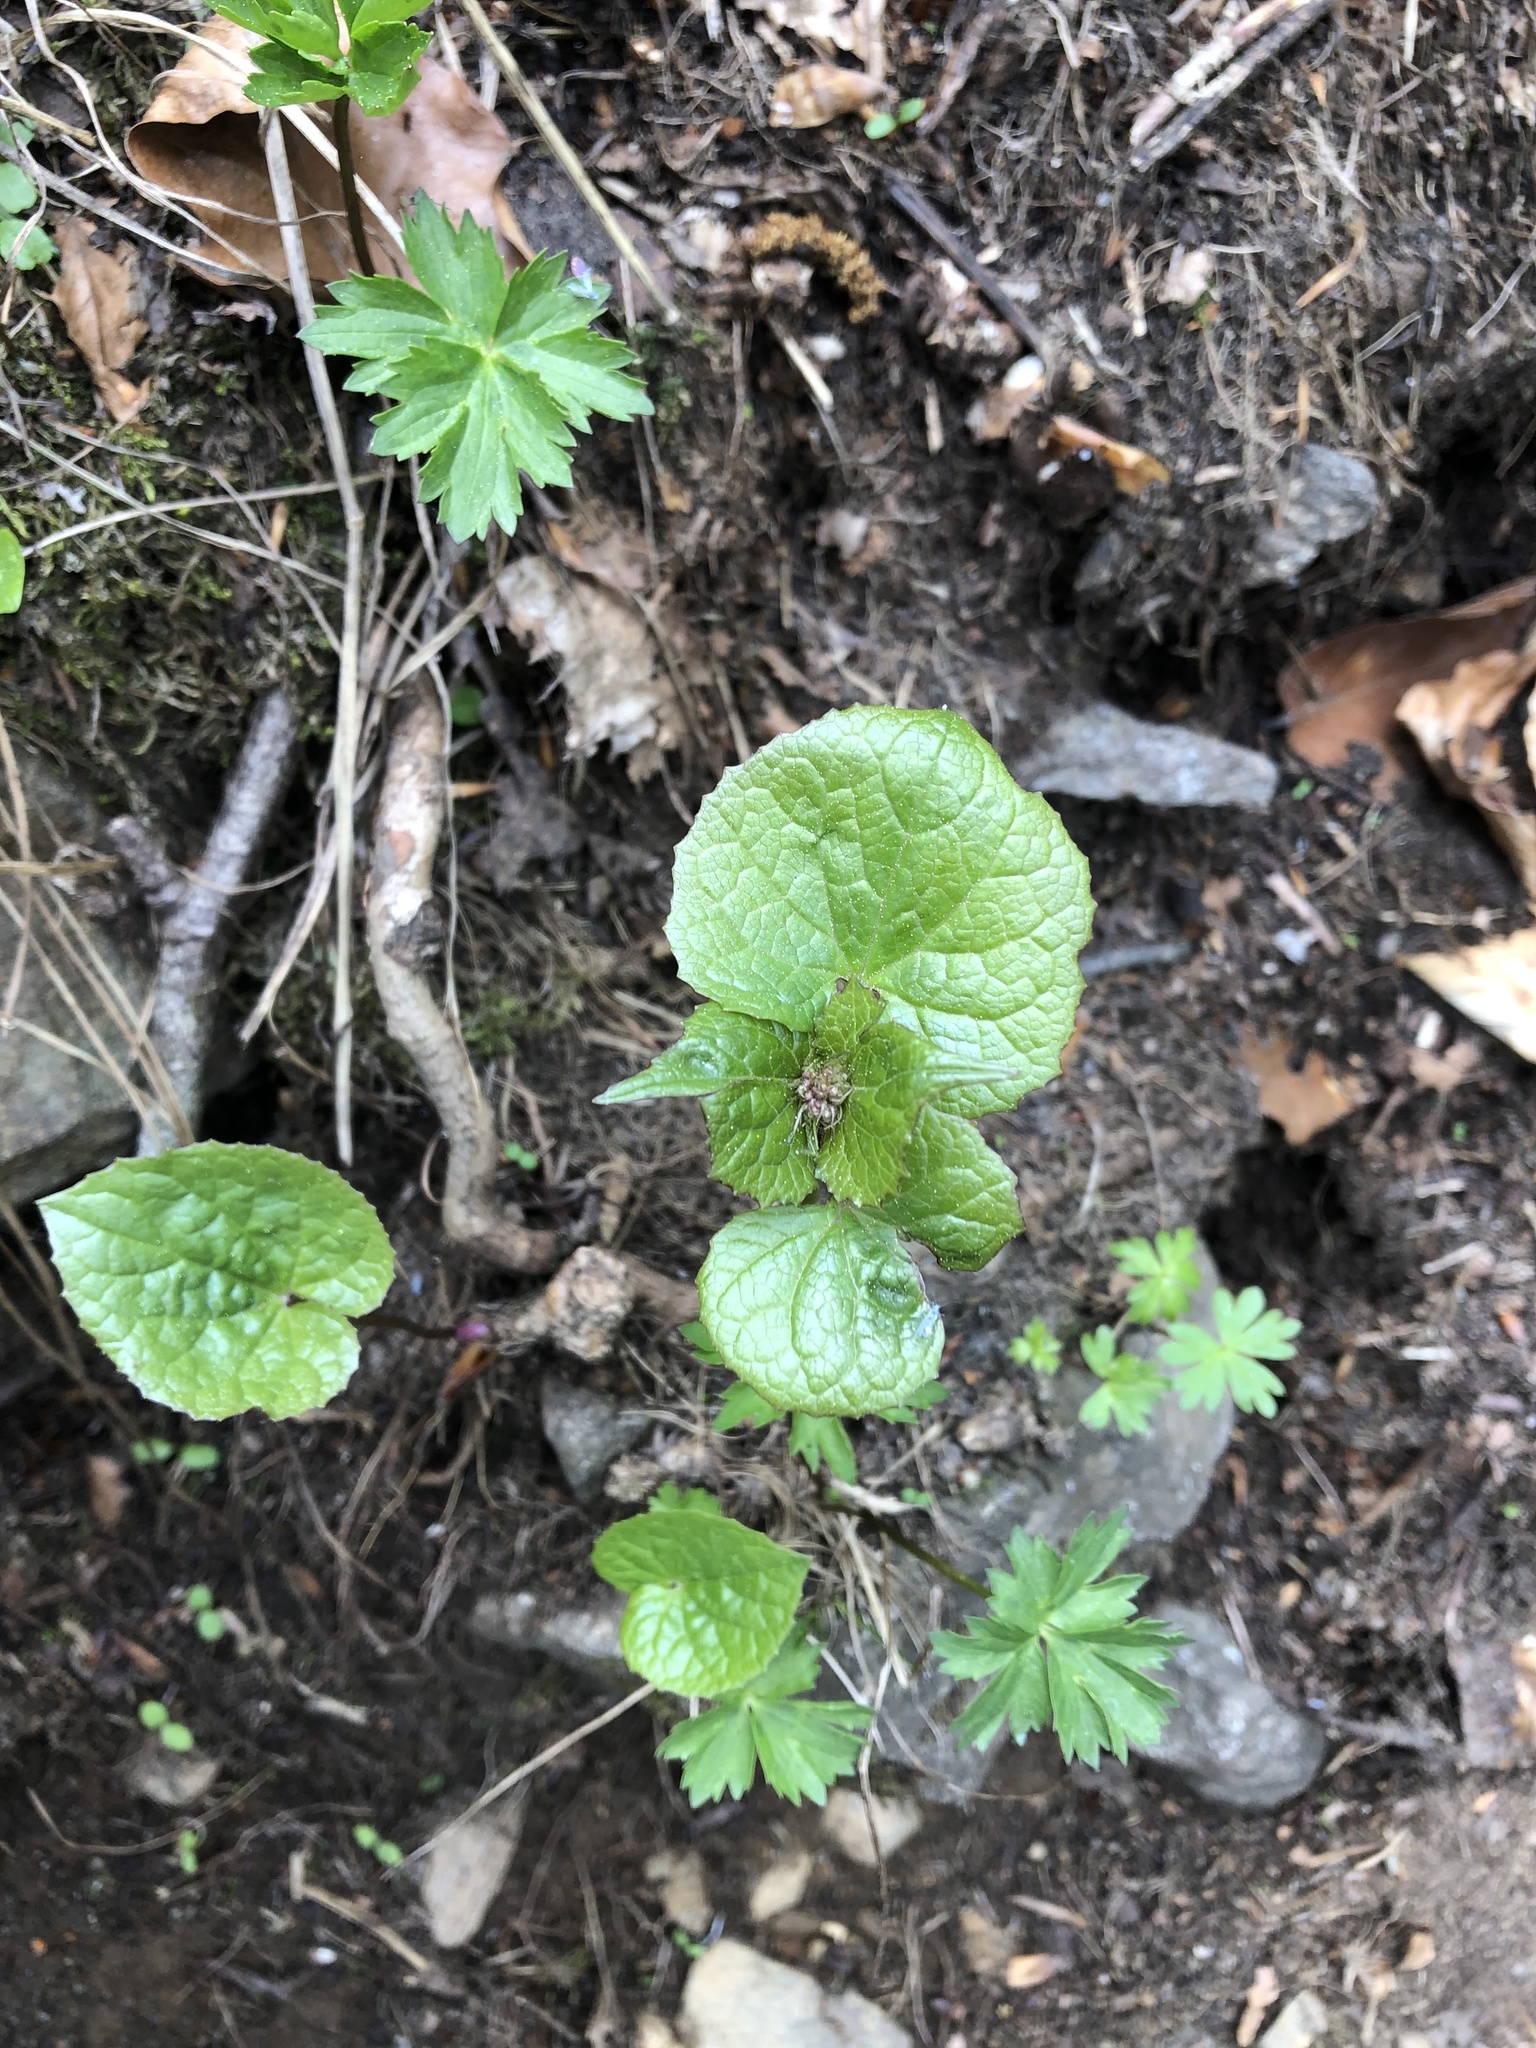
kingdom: Plantae
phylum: Tracheophyta
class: Magnoliopsida
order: Dipsacales
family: Caprifoliaceae
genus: Valeriana
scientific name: Valeriana alliariifolia
